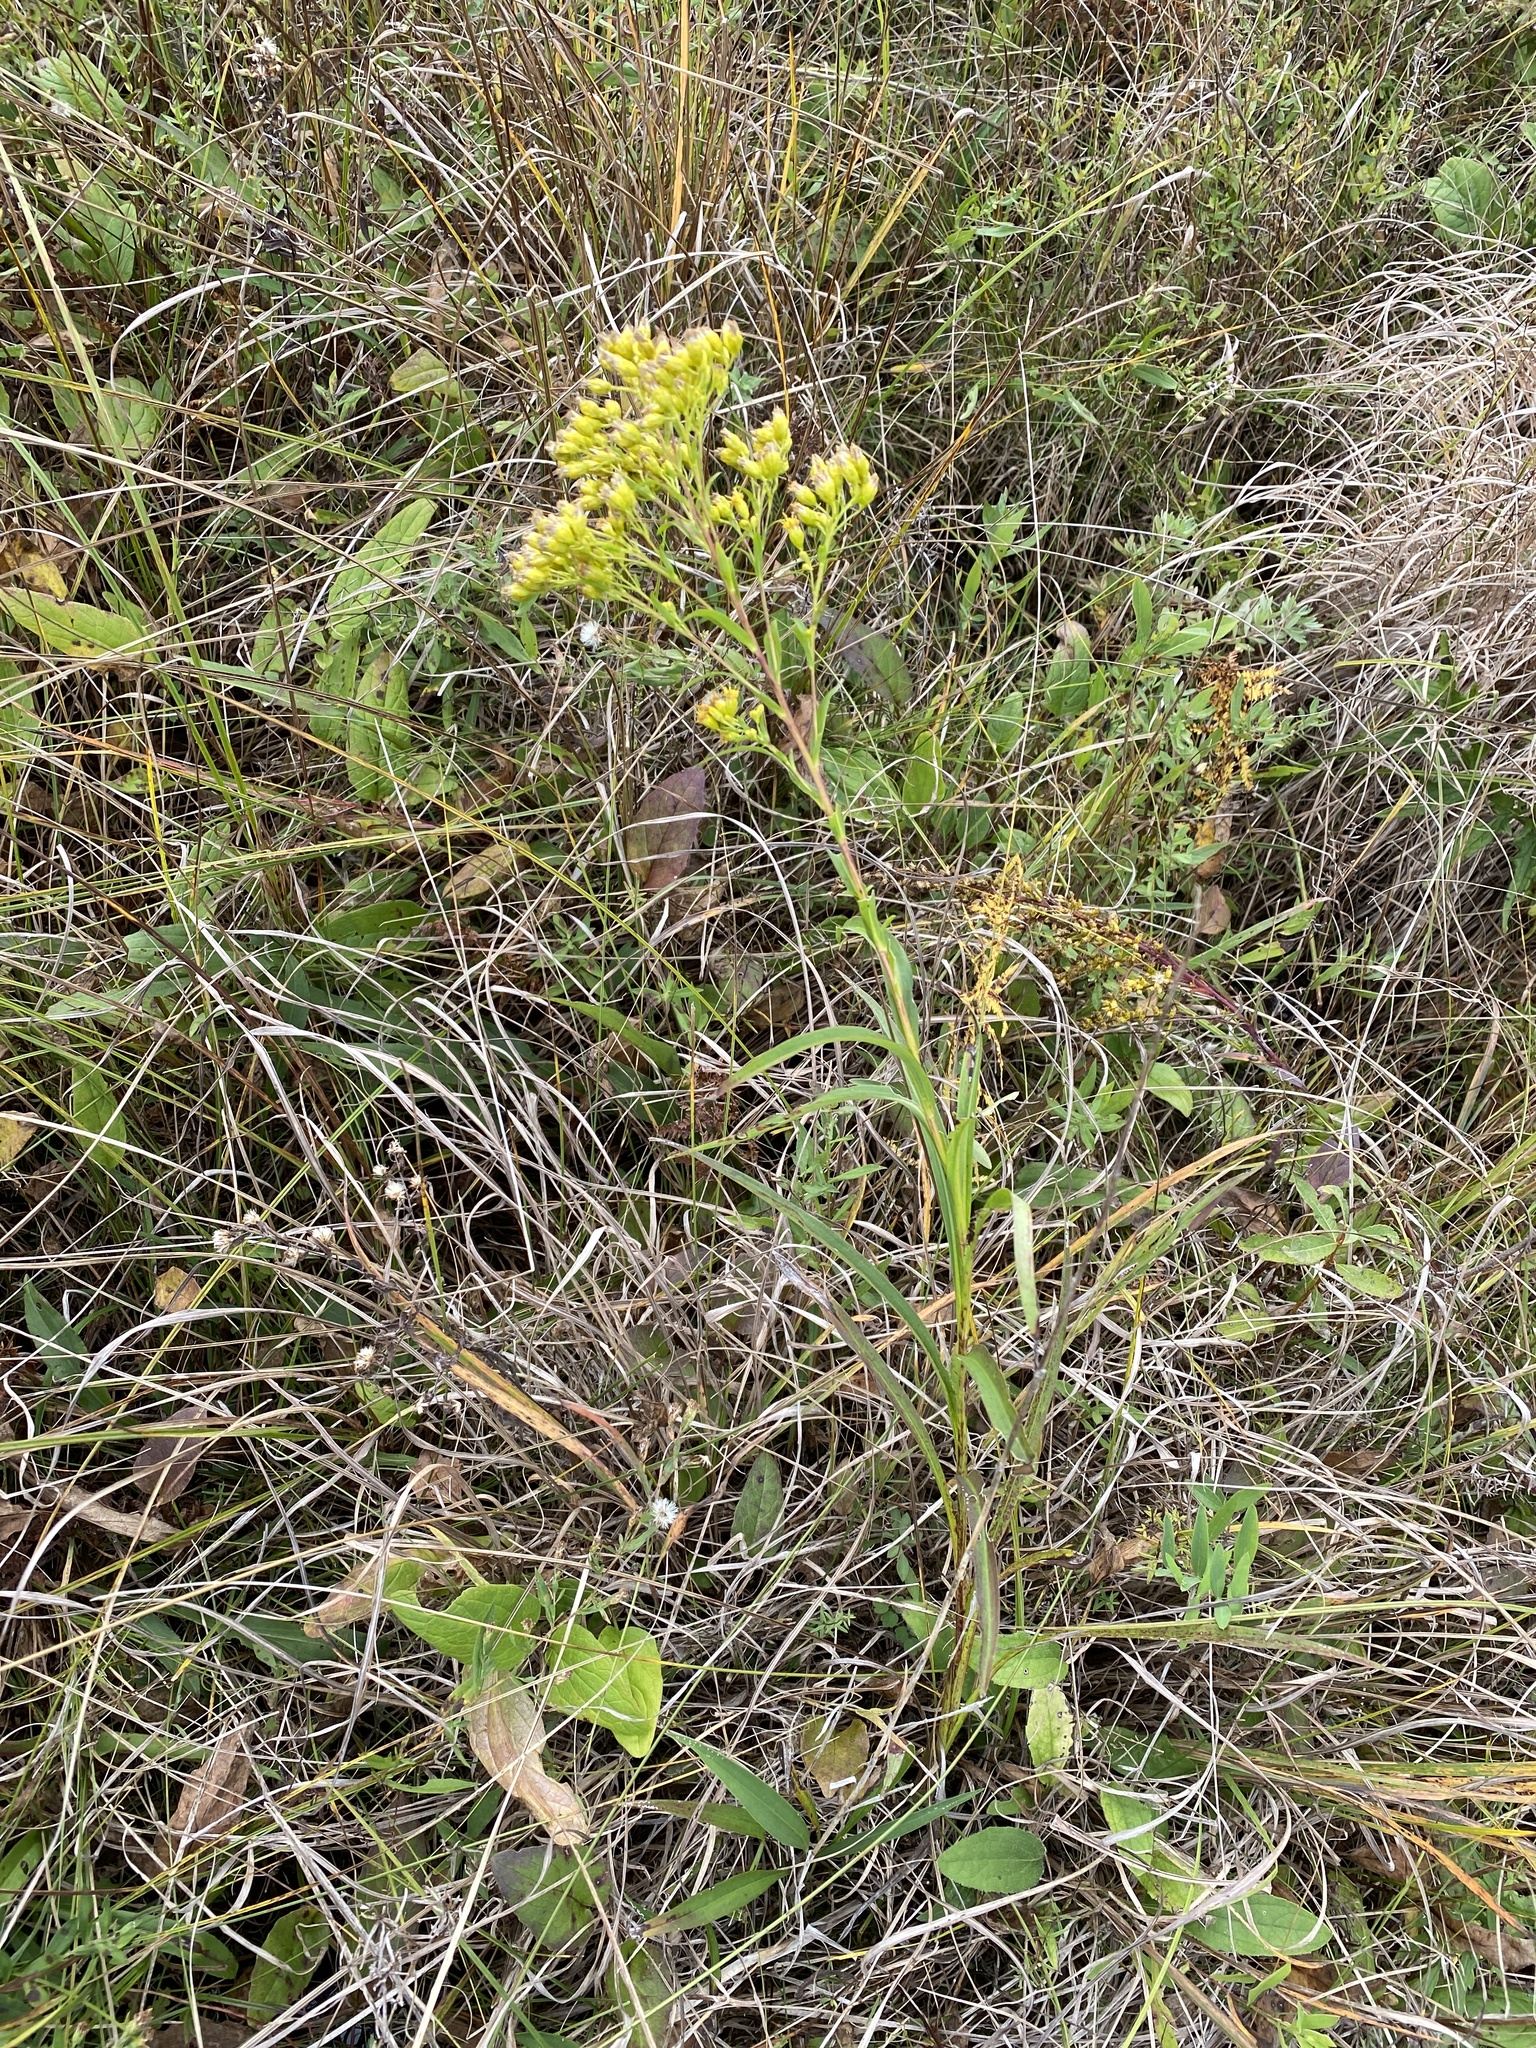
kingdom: Plantae
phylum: Tracheophyta
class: Magnoliopsida
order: Asterales
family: Asteraceae
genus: Solidago
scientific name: Solidago riddellii
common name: Riddell's goldenrod
